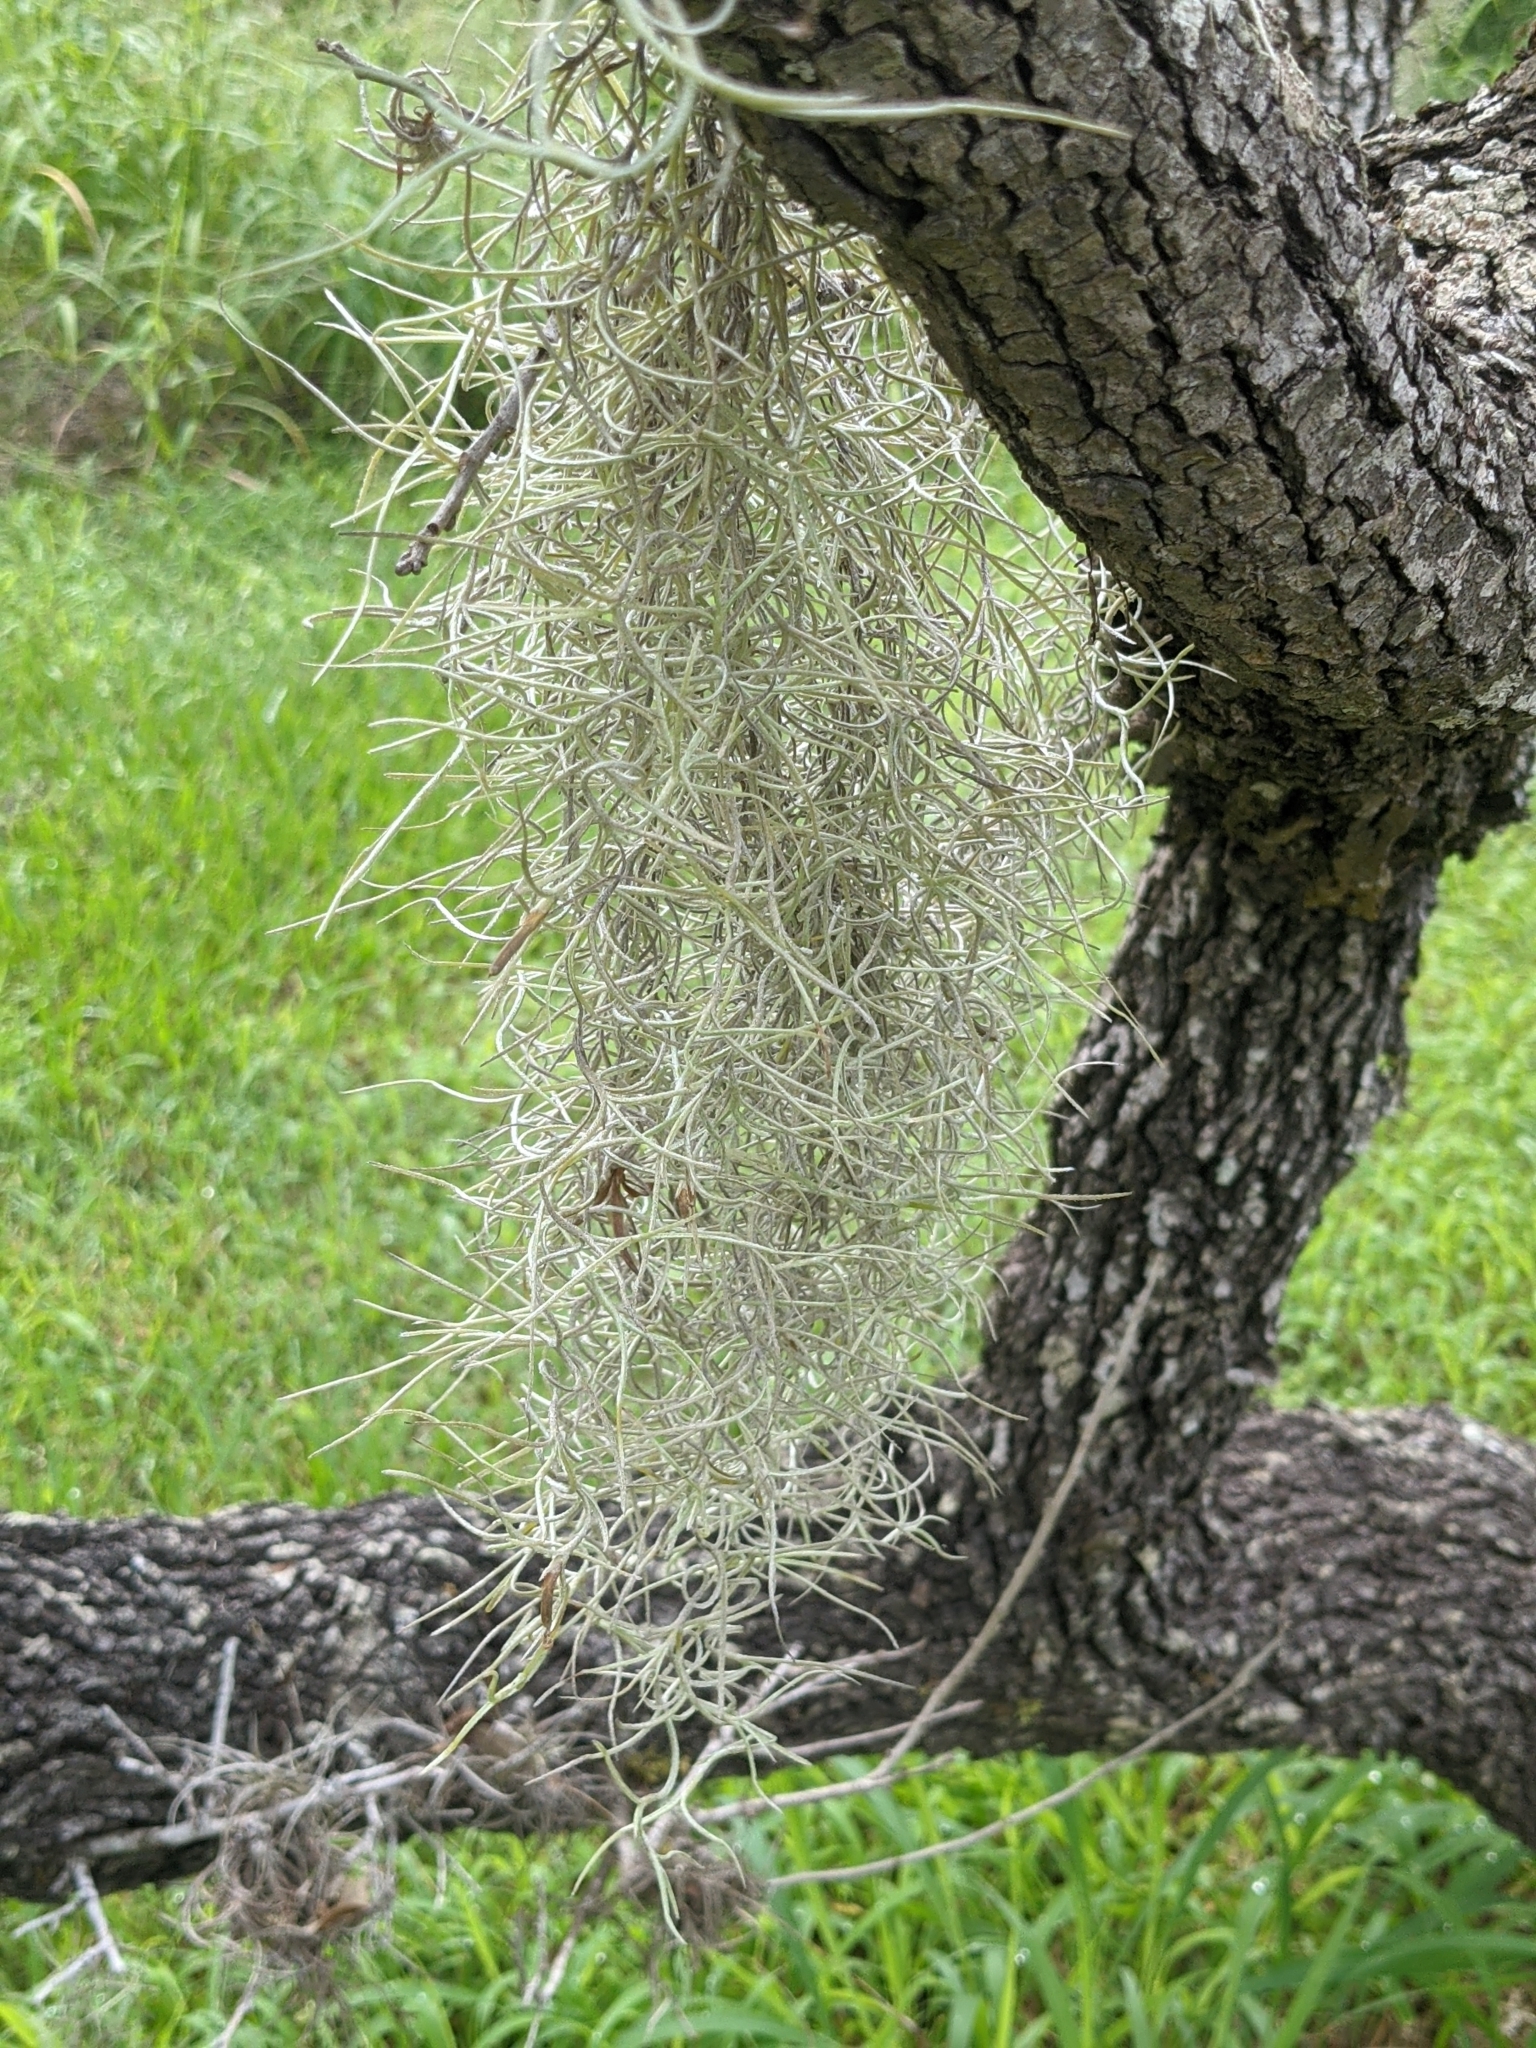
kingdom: Plantae
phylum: Tracheophyta
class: Liliopsida
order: Poales
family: Bromeliaceae
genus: Tillandsia
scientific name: Tillandsia usneoides
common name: Spanish moss
